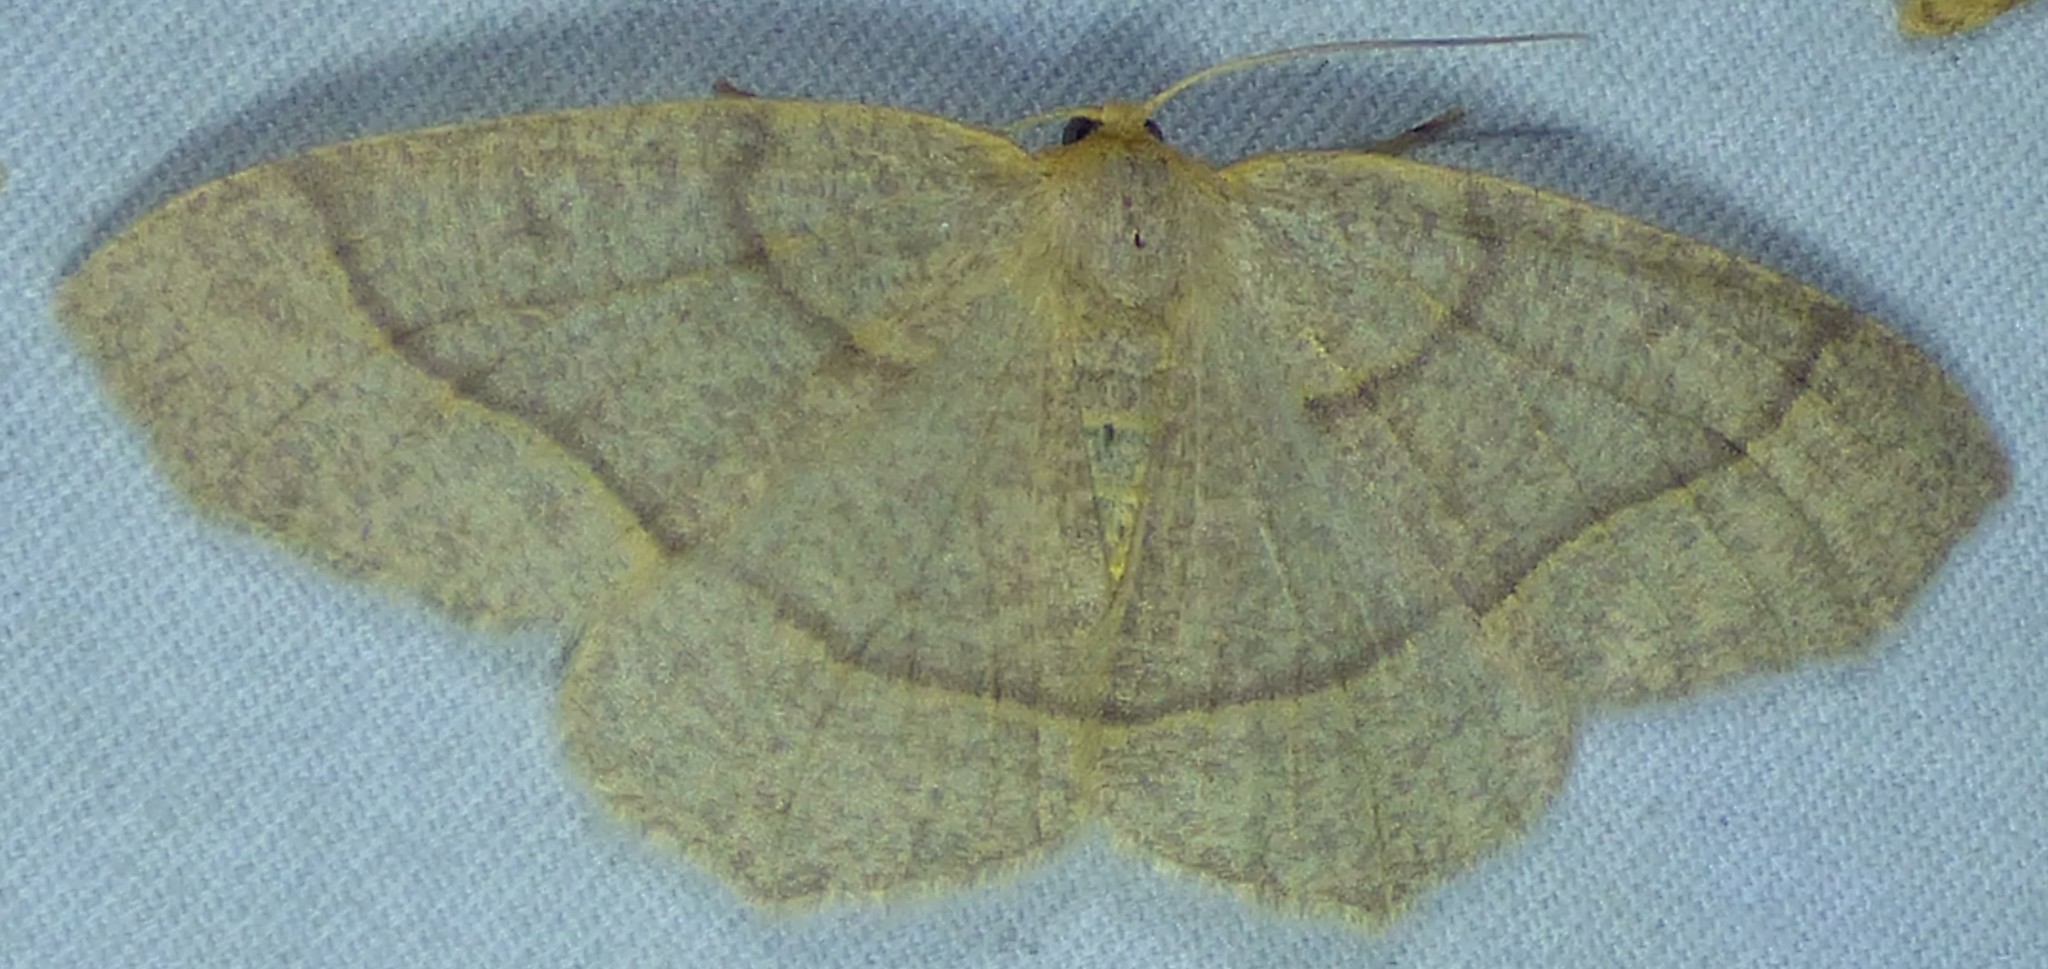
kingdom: Animalia
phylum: Arthropoda
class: Insecta
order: Lepidoptera
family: Geometridae
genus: Lambdina
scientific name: Lambdina fervidaria
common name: Curve-lined looper moth
